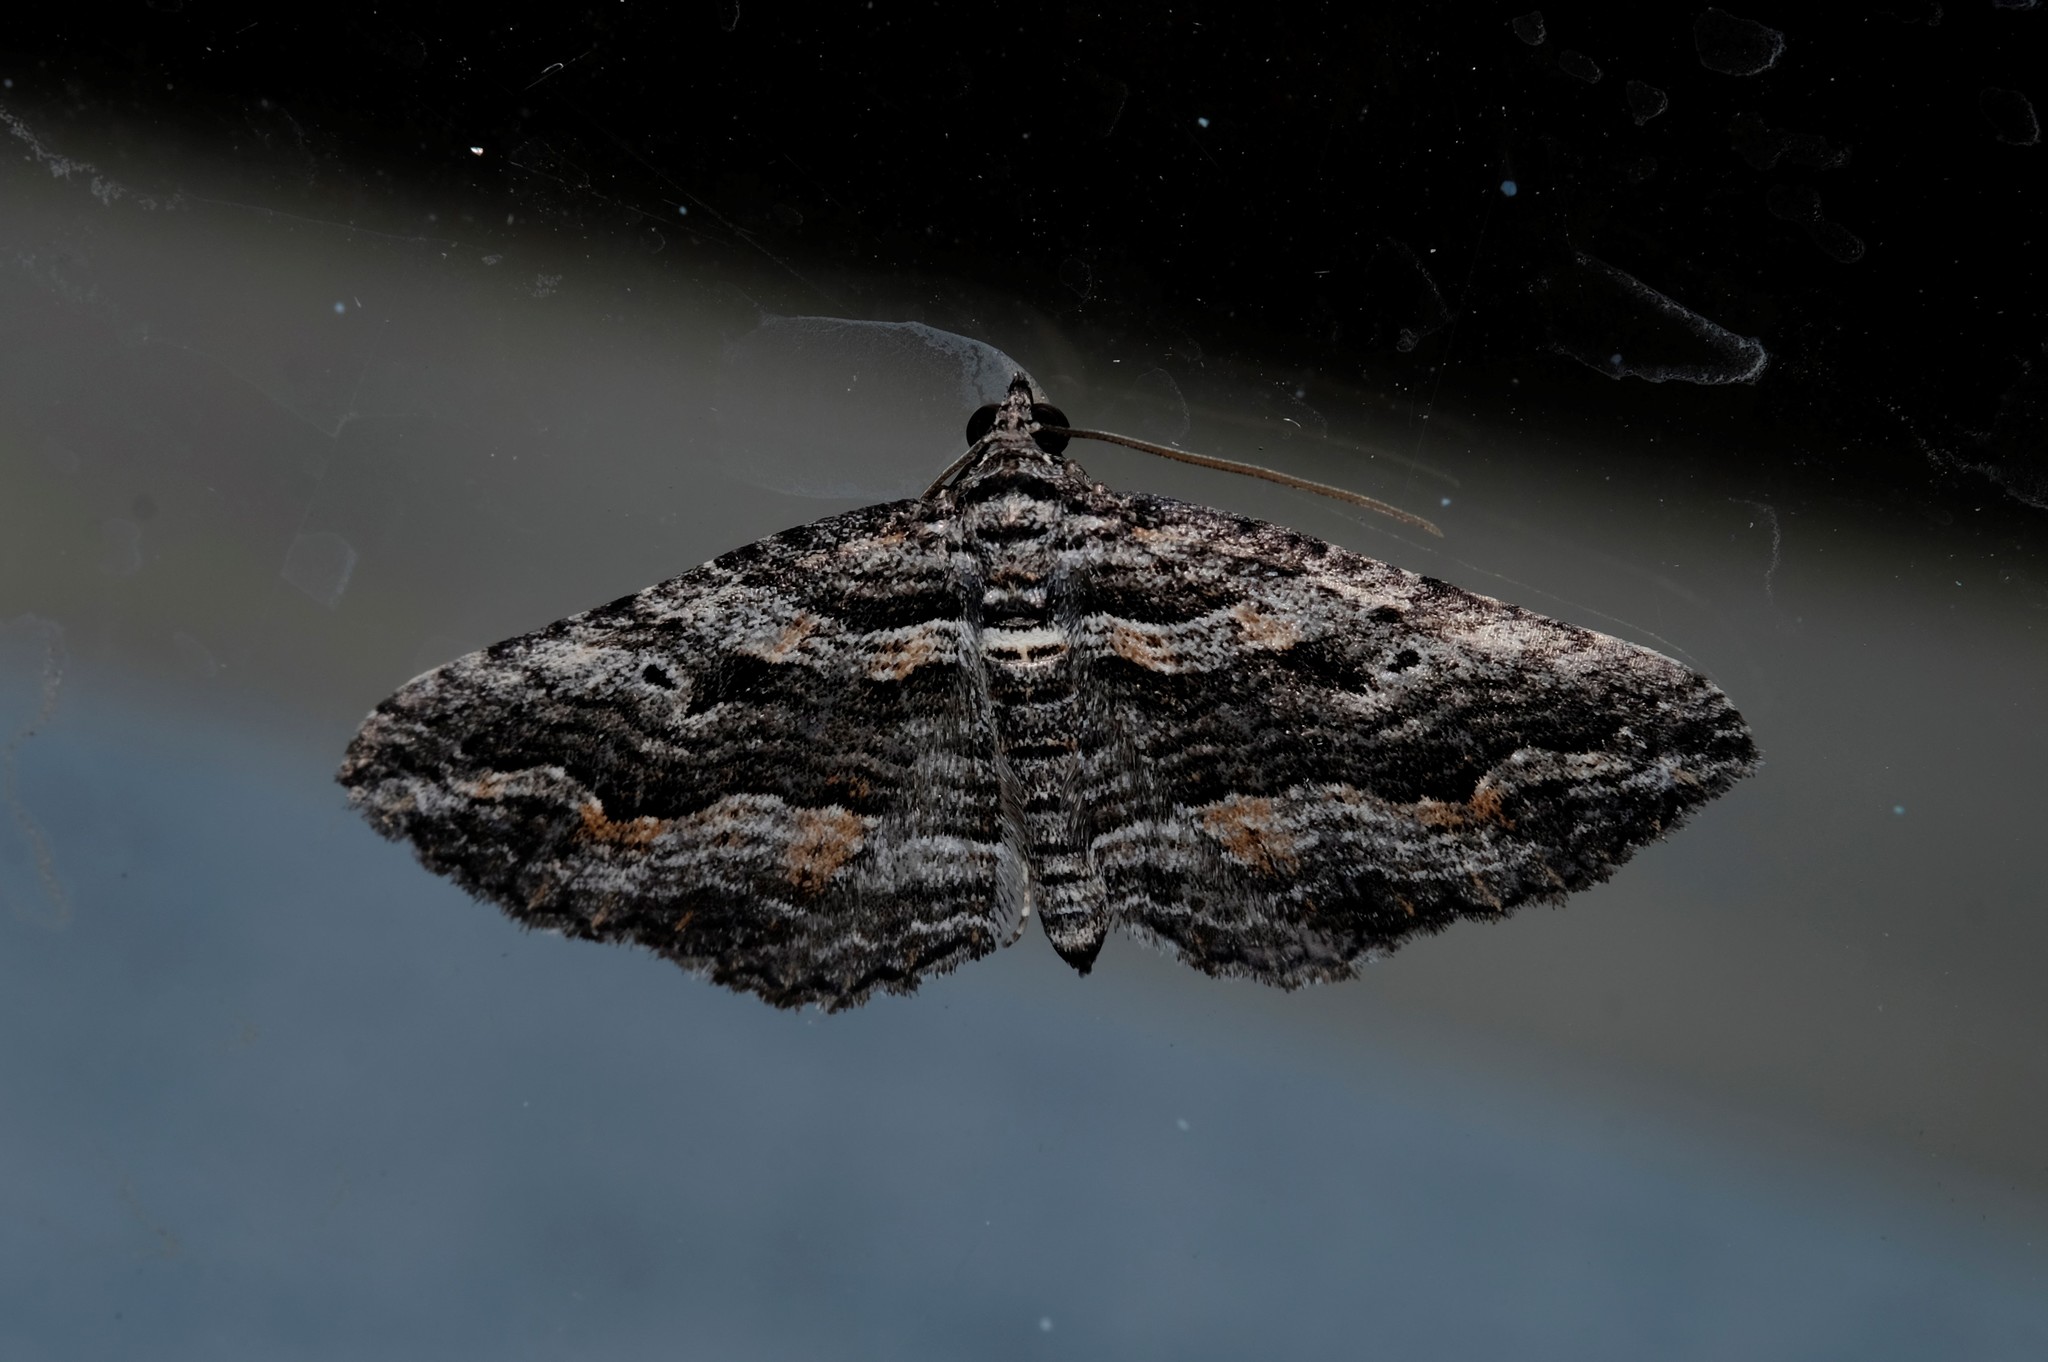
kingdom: Animalia
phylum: Arthropoda
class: Insecta
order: Lepidoptera
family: Geometridae
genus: Chrysolarentia
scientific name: Chrysolarentia severata
